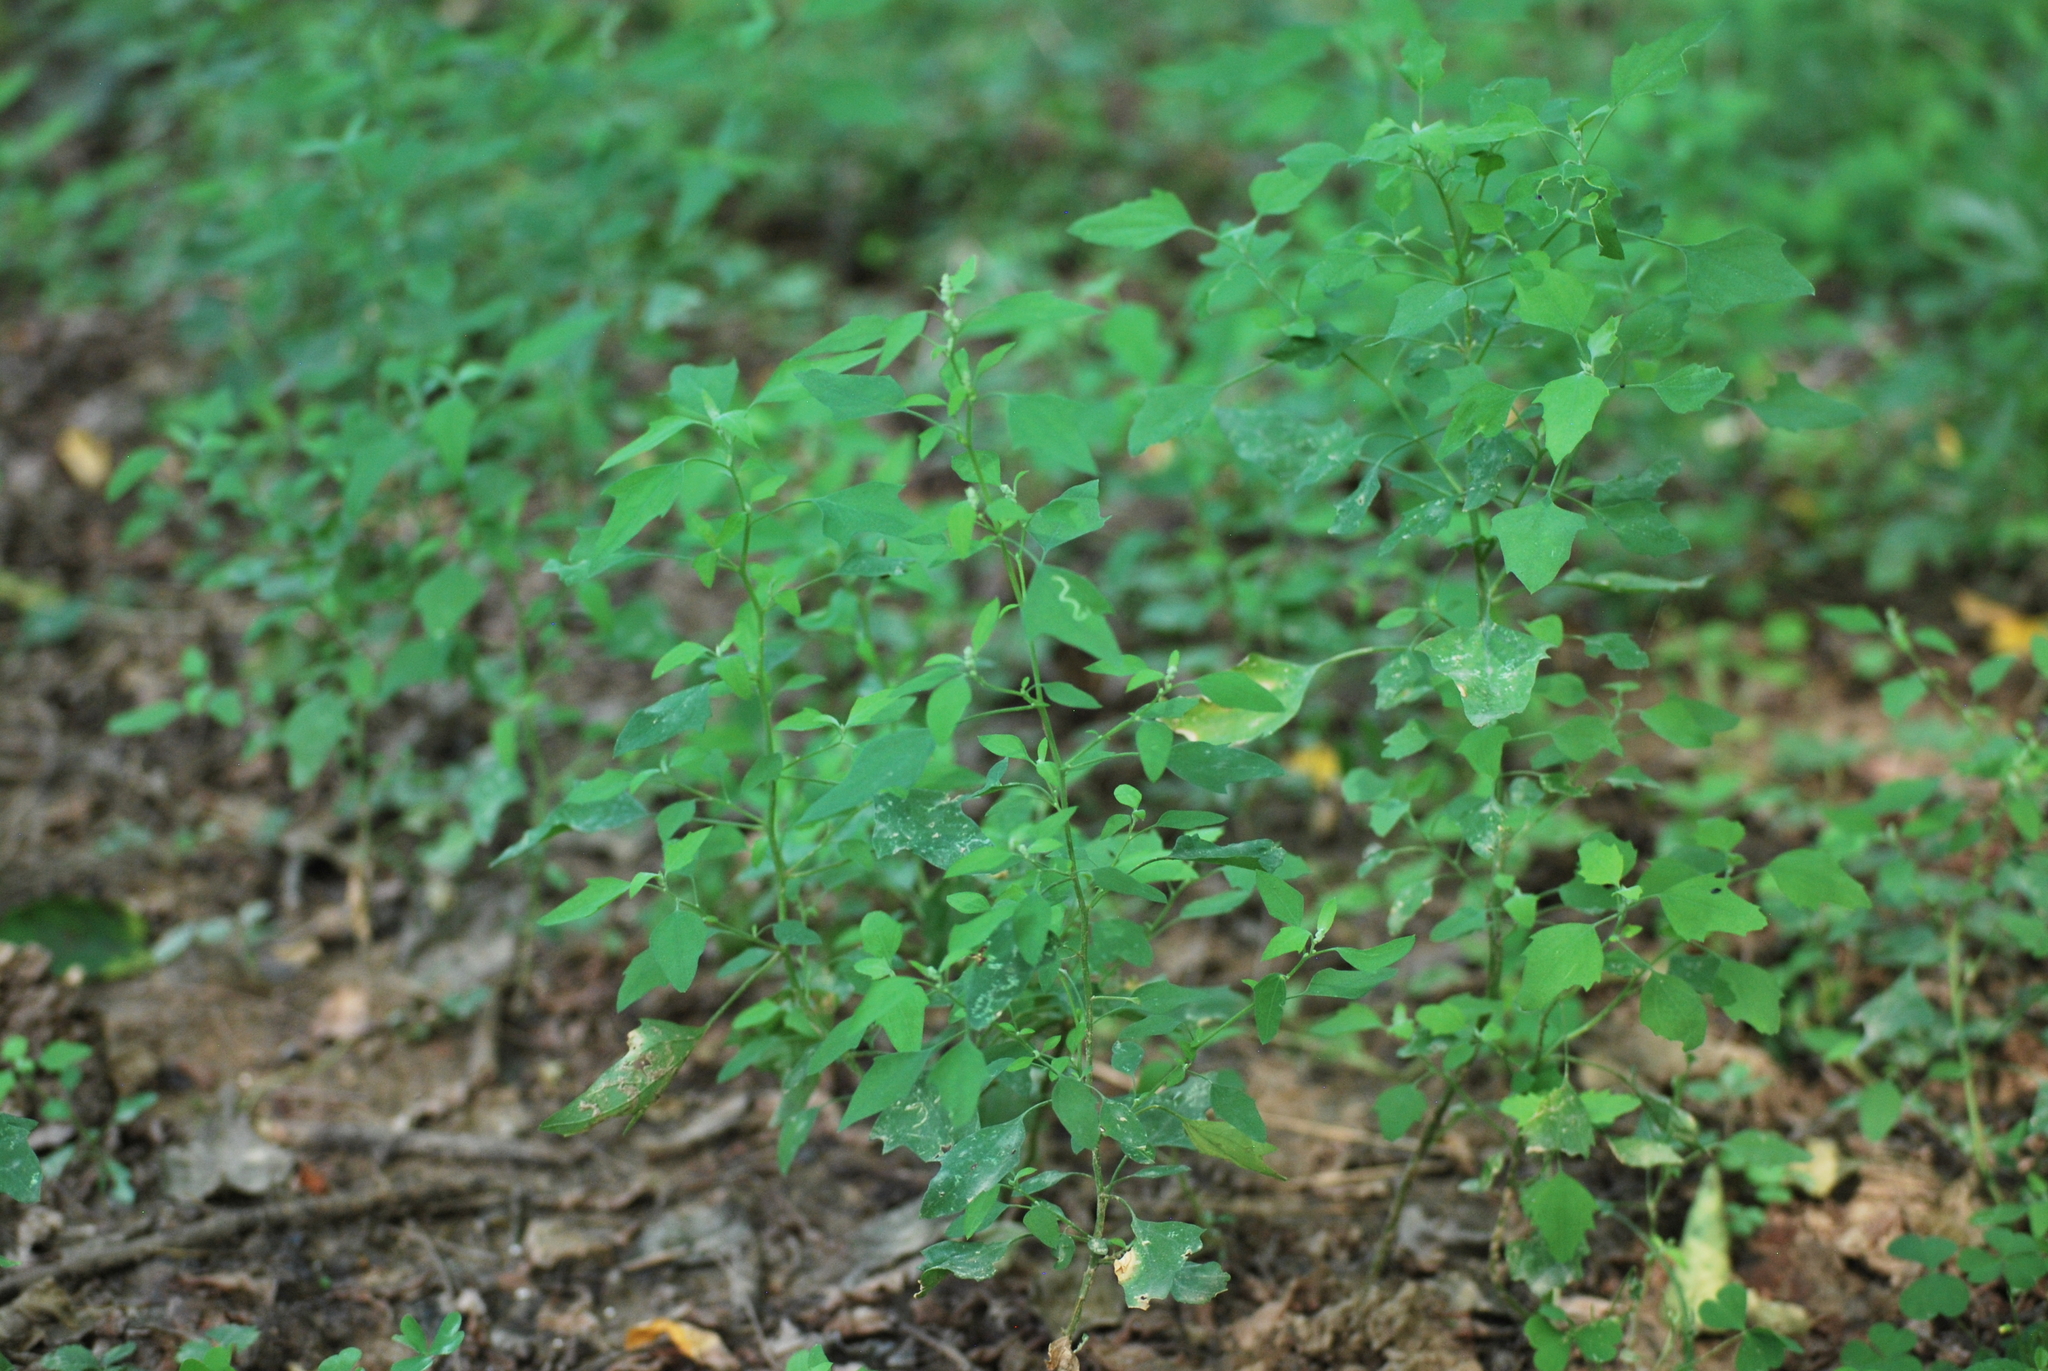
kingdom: Plantae
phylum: Tracheophyta
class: Magnoliopsida
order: Caryophyllales
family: Amaranthaceae
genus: Chenopodium
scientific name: Chenopodium album
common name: Fat-hen
